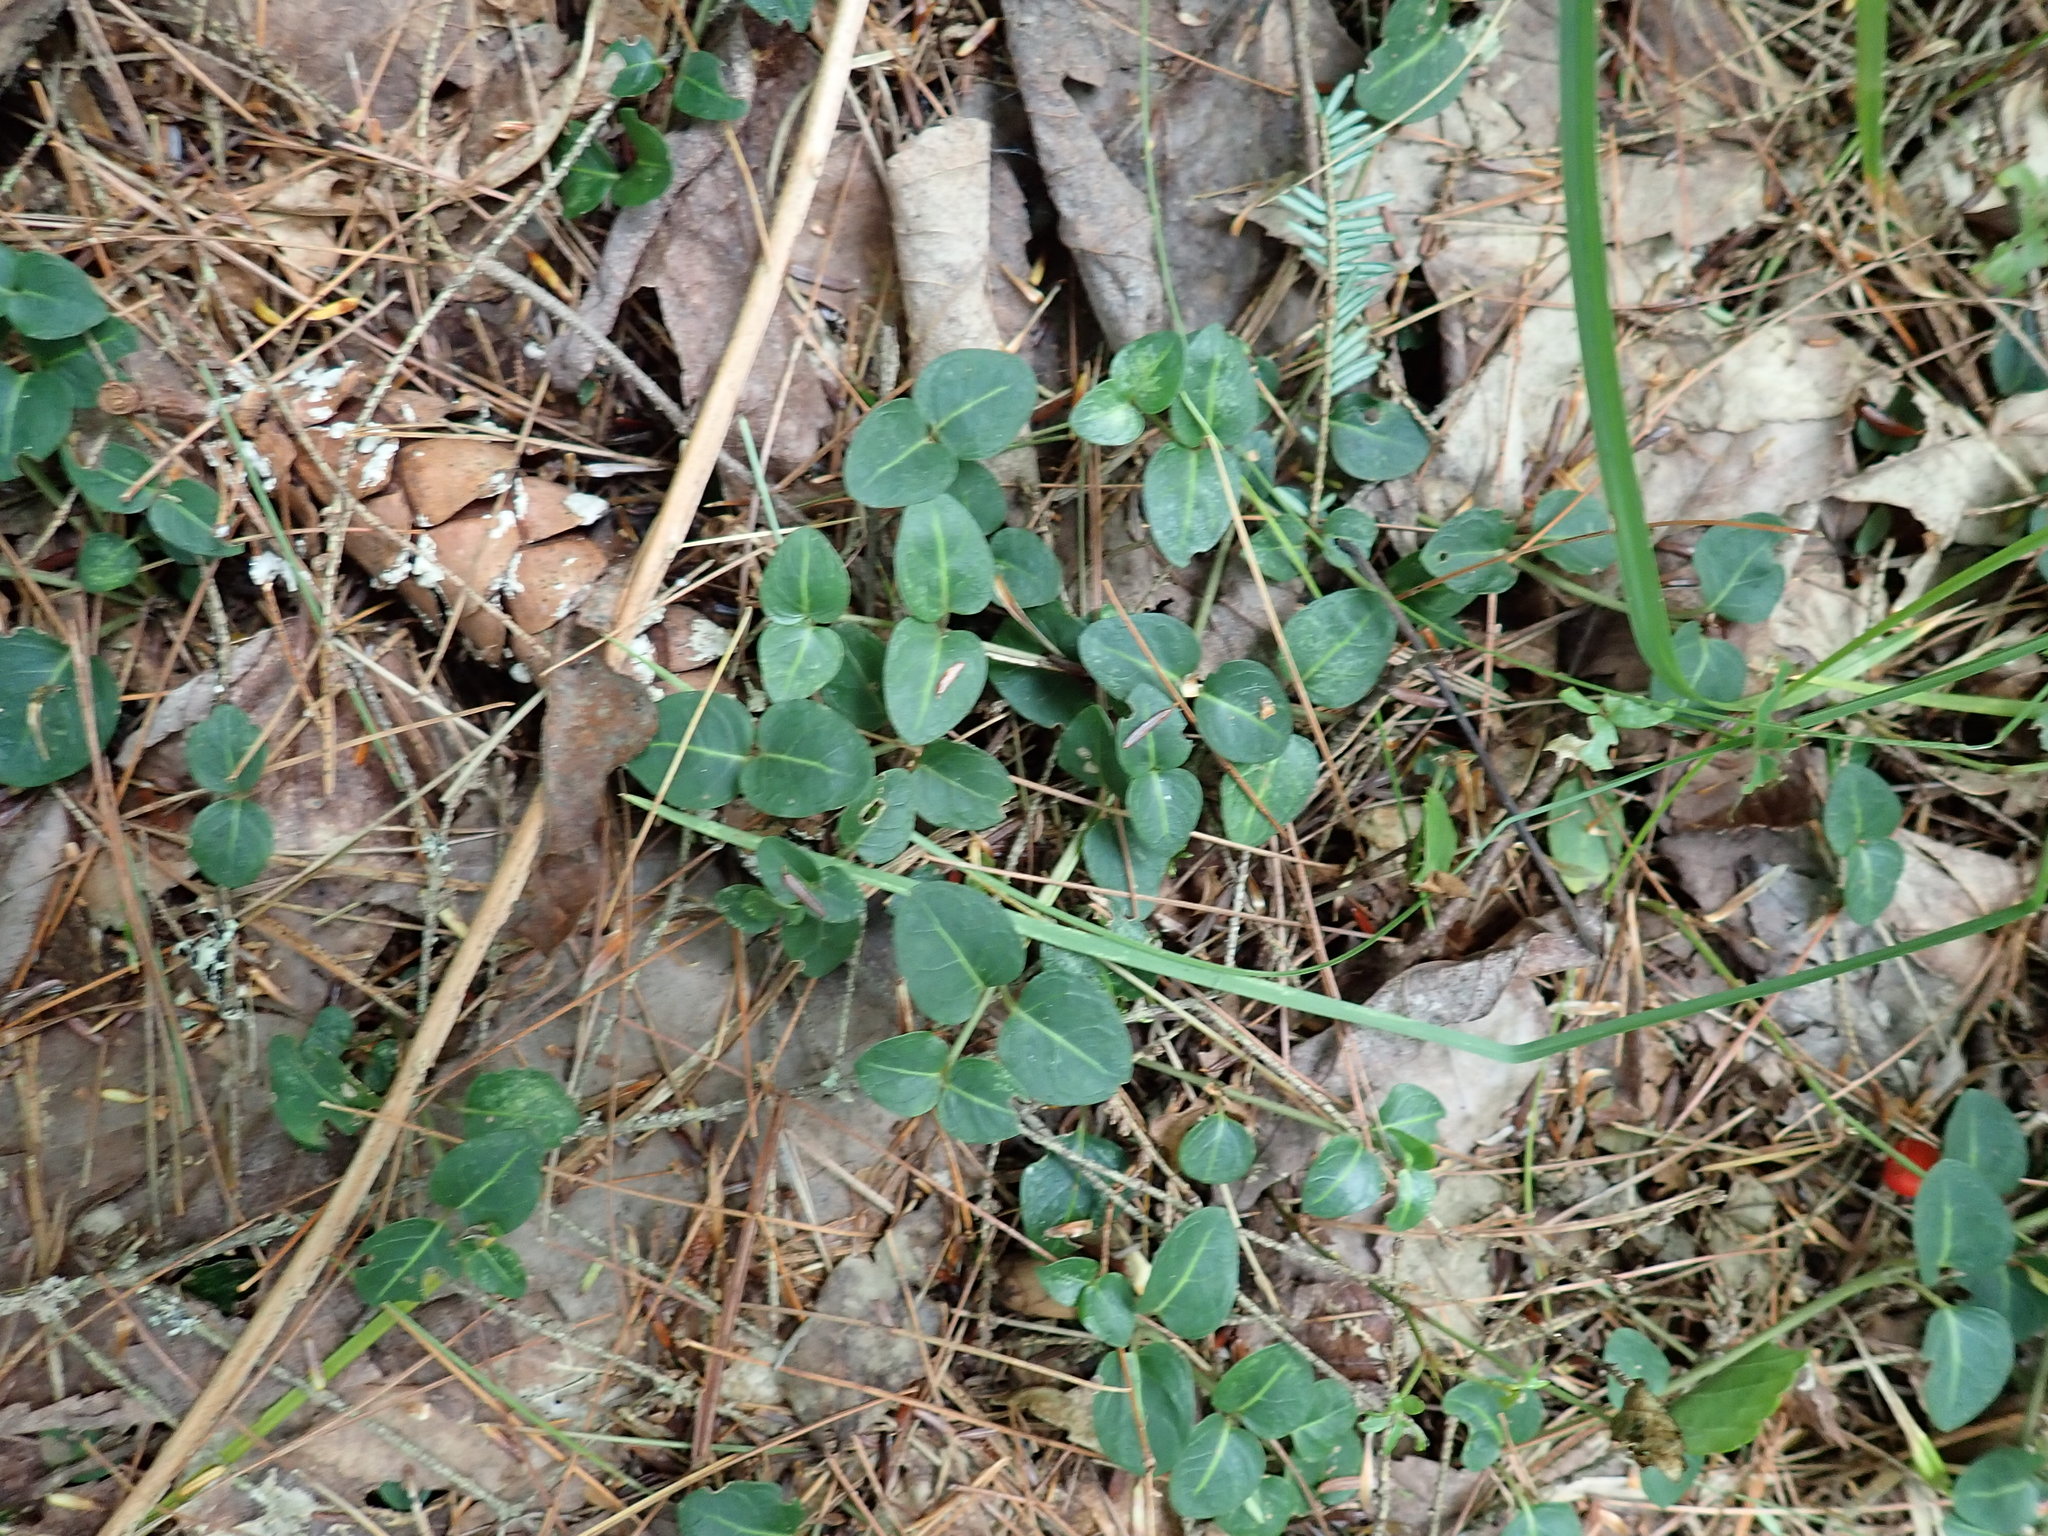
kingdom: Plantae
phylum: Tracheophyta
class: Magnoliopsida
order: Gentianales
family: Rubiaceae
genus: Mitchella
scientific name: Mitchella repens
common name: Partridge-berry
